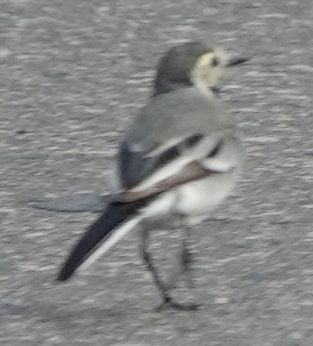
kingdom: Animalia
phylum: Chordata
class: Aves
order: Passeriformes
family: Motacillidae
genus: Motacilla
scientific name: Motacilla alba
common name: White wagtail
